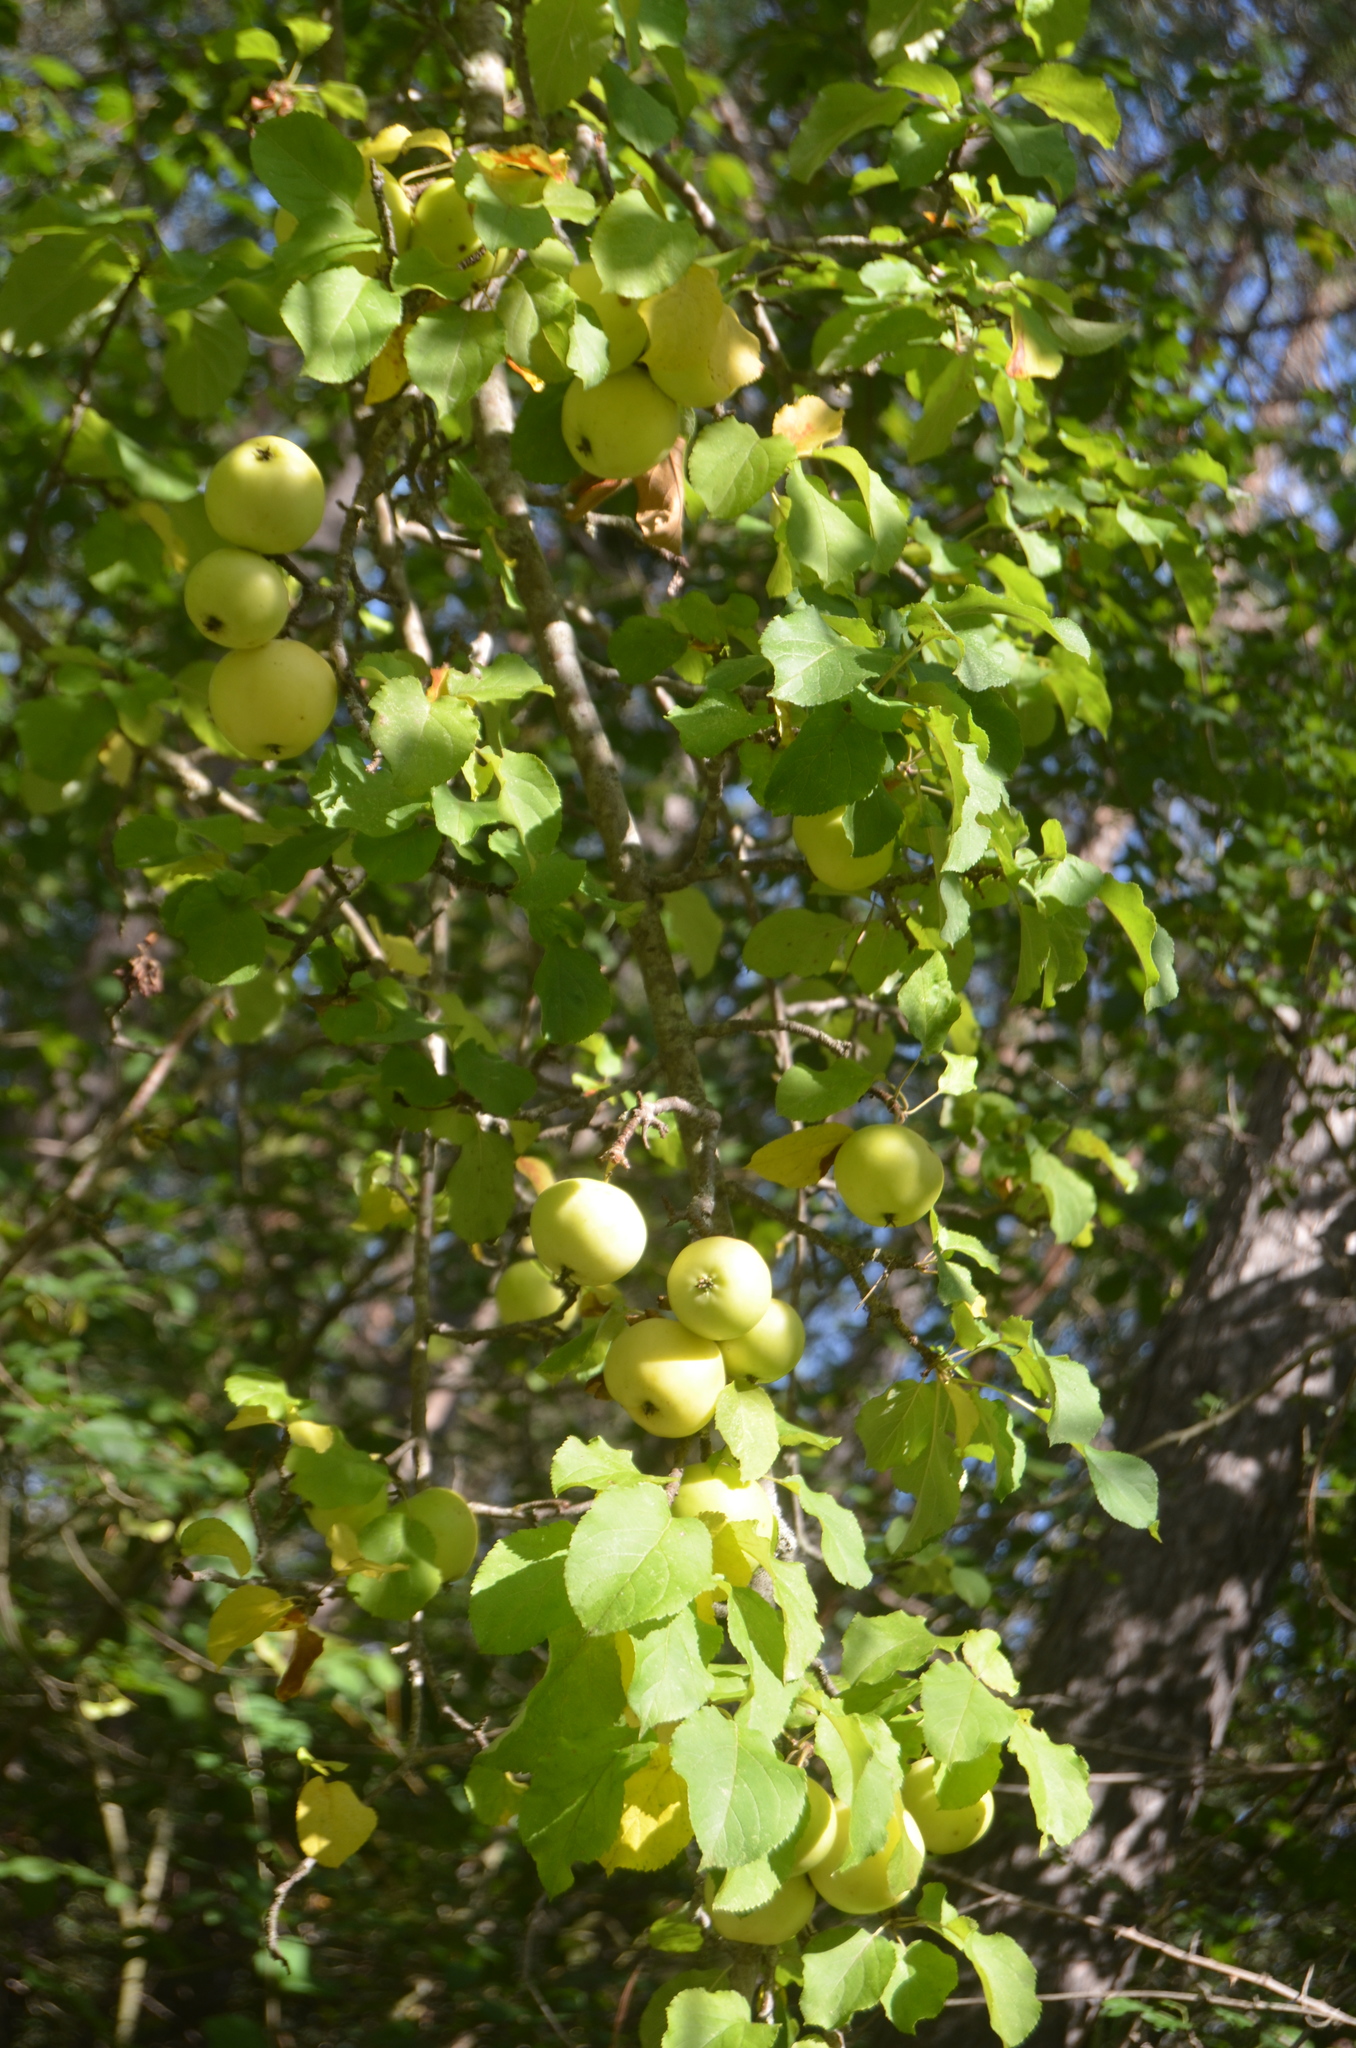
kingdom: Plantae
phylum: Tracheophyta
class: Magnoliopsida
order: Rosales
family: Rosaceae
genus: Malus
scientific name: Malus sylvestris
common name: Crab apple
